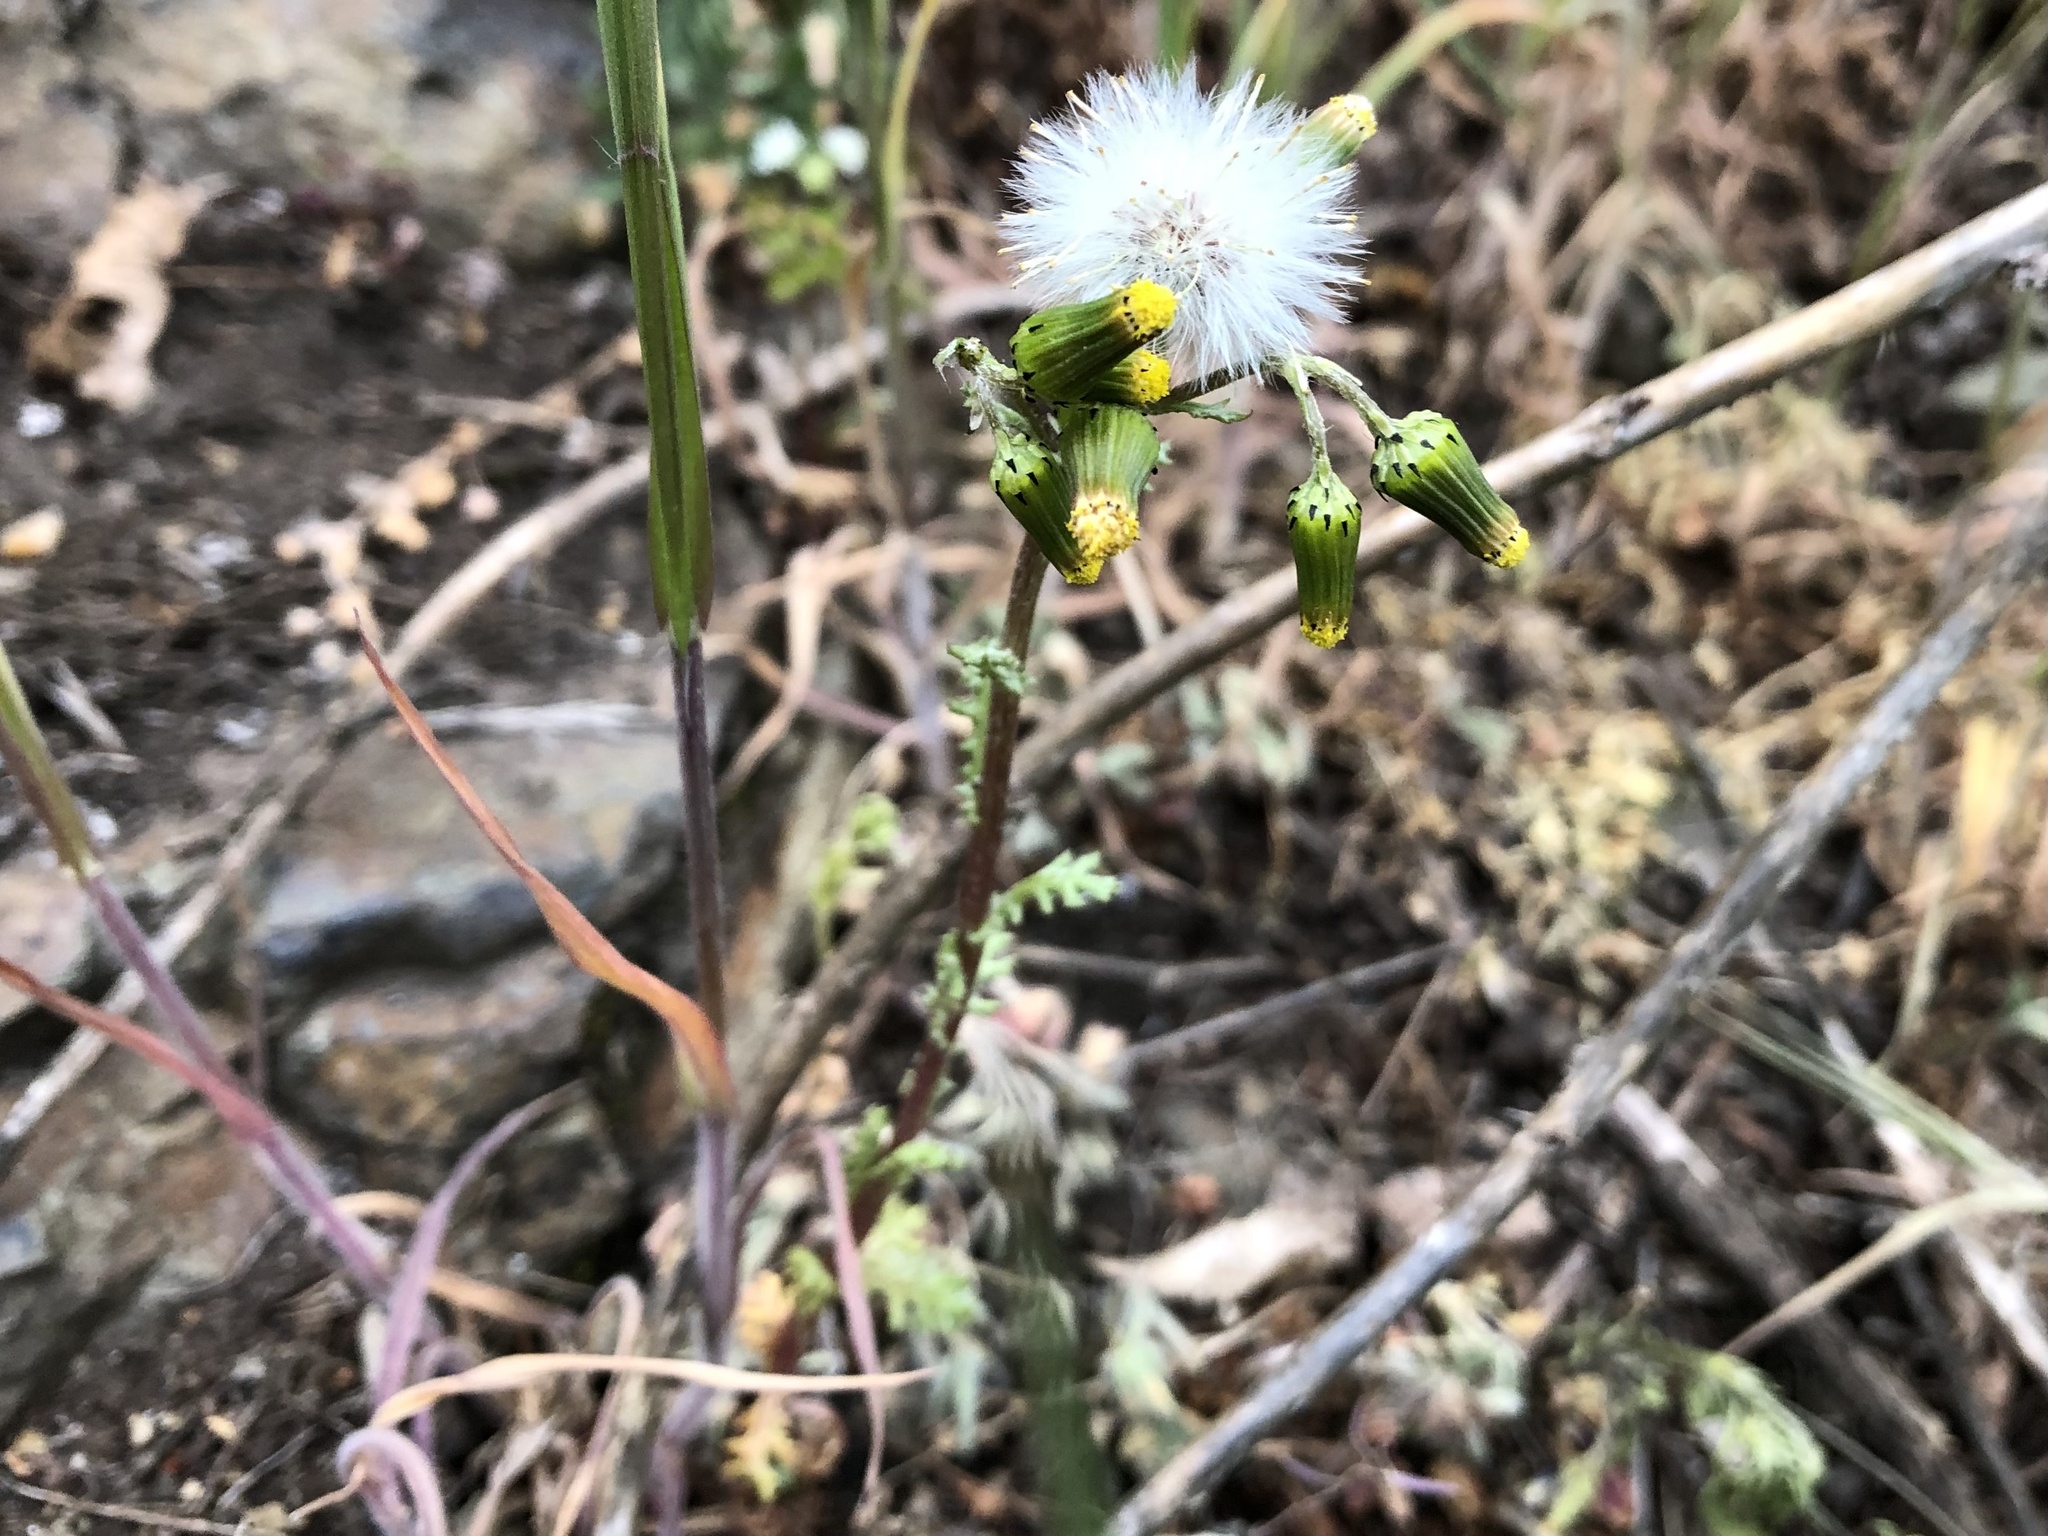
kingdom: Plantae
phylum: Tracheophyta
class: Magnoliopsida
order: Asterales
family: Asteraceae
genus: Senecio
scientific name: Senecio vulgaris
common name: Old-man-in-the-spring
